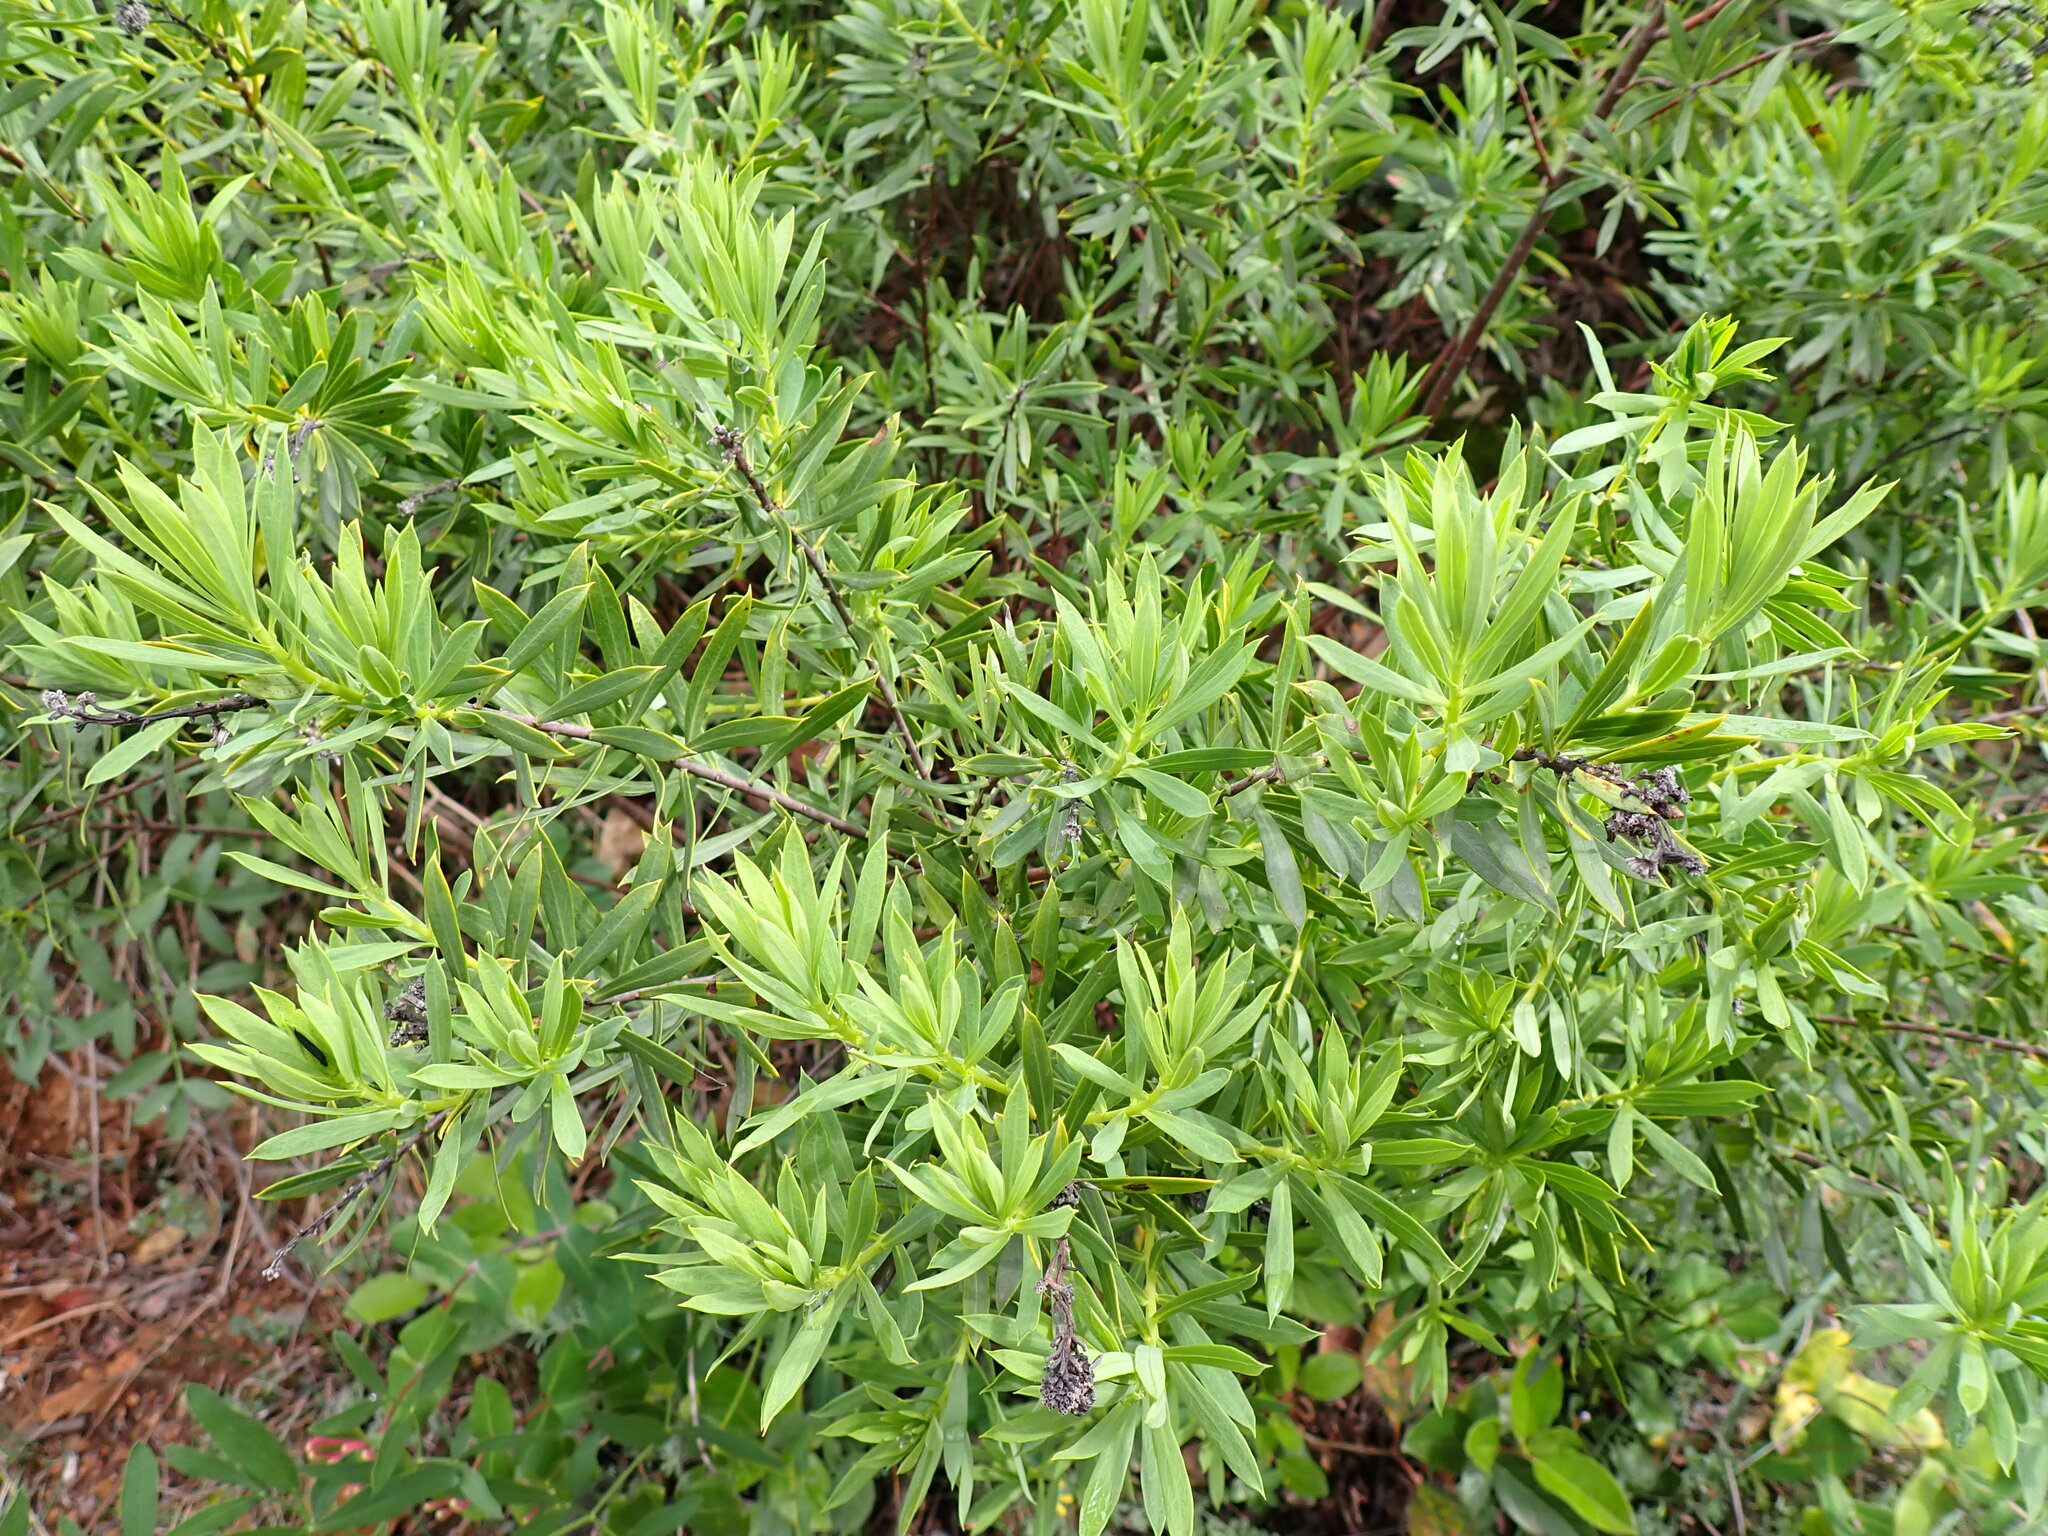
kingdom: Plantae
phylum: Tracheophyta
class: Magnoliopsida
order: Malvales
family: Thymelaeaceae
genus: Daphne
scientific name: Daphne gnidium
